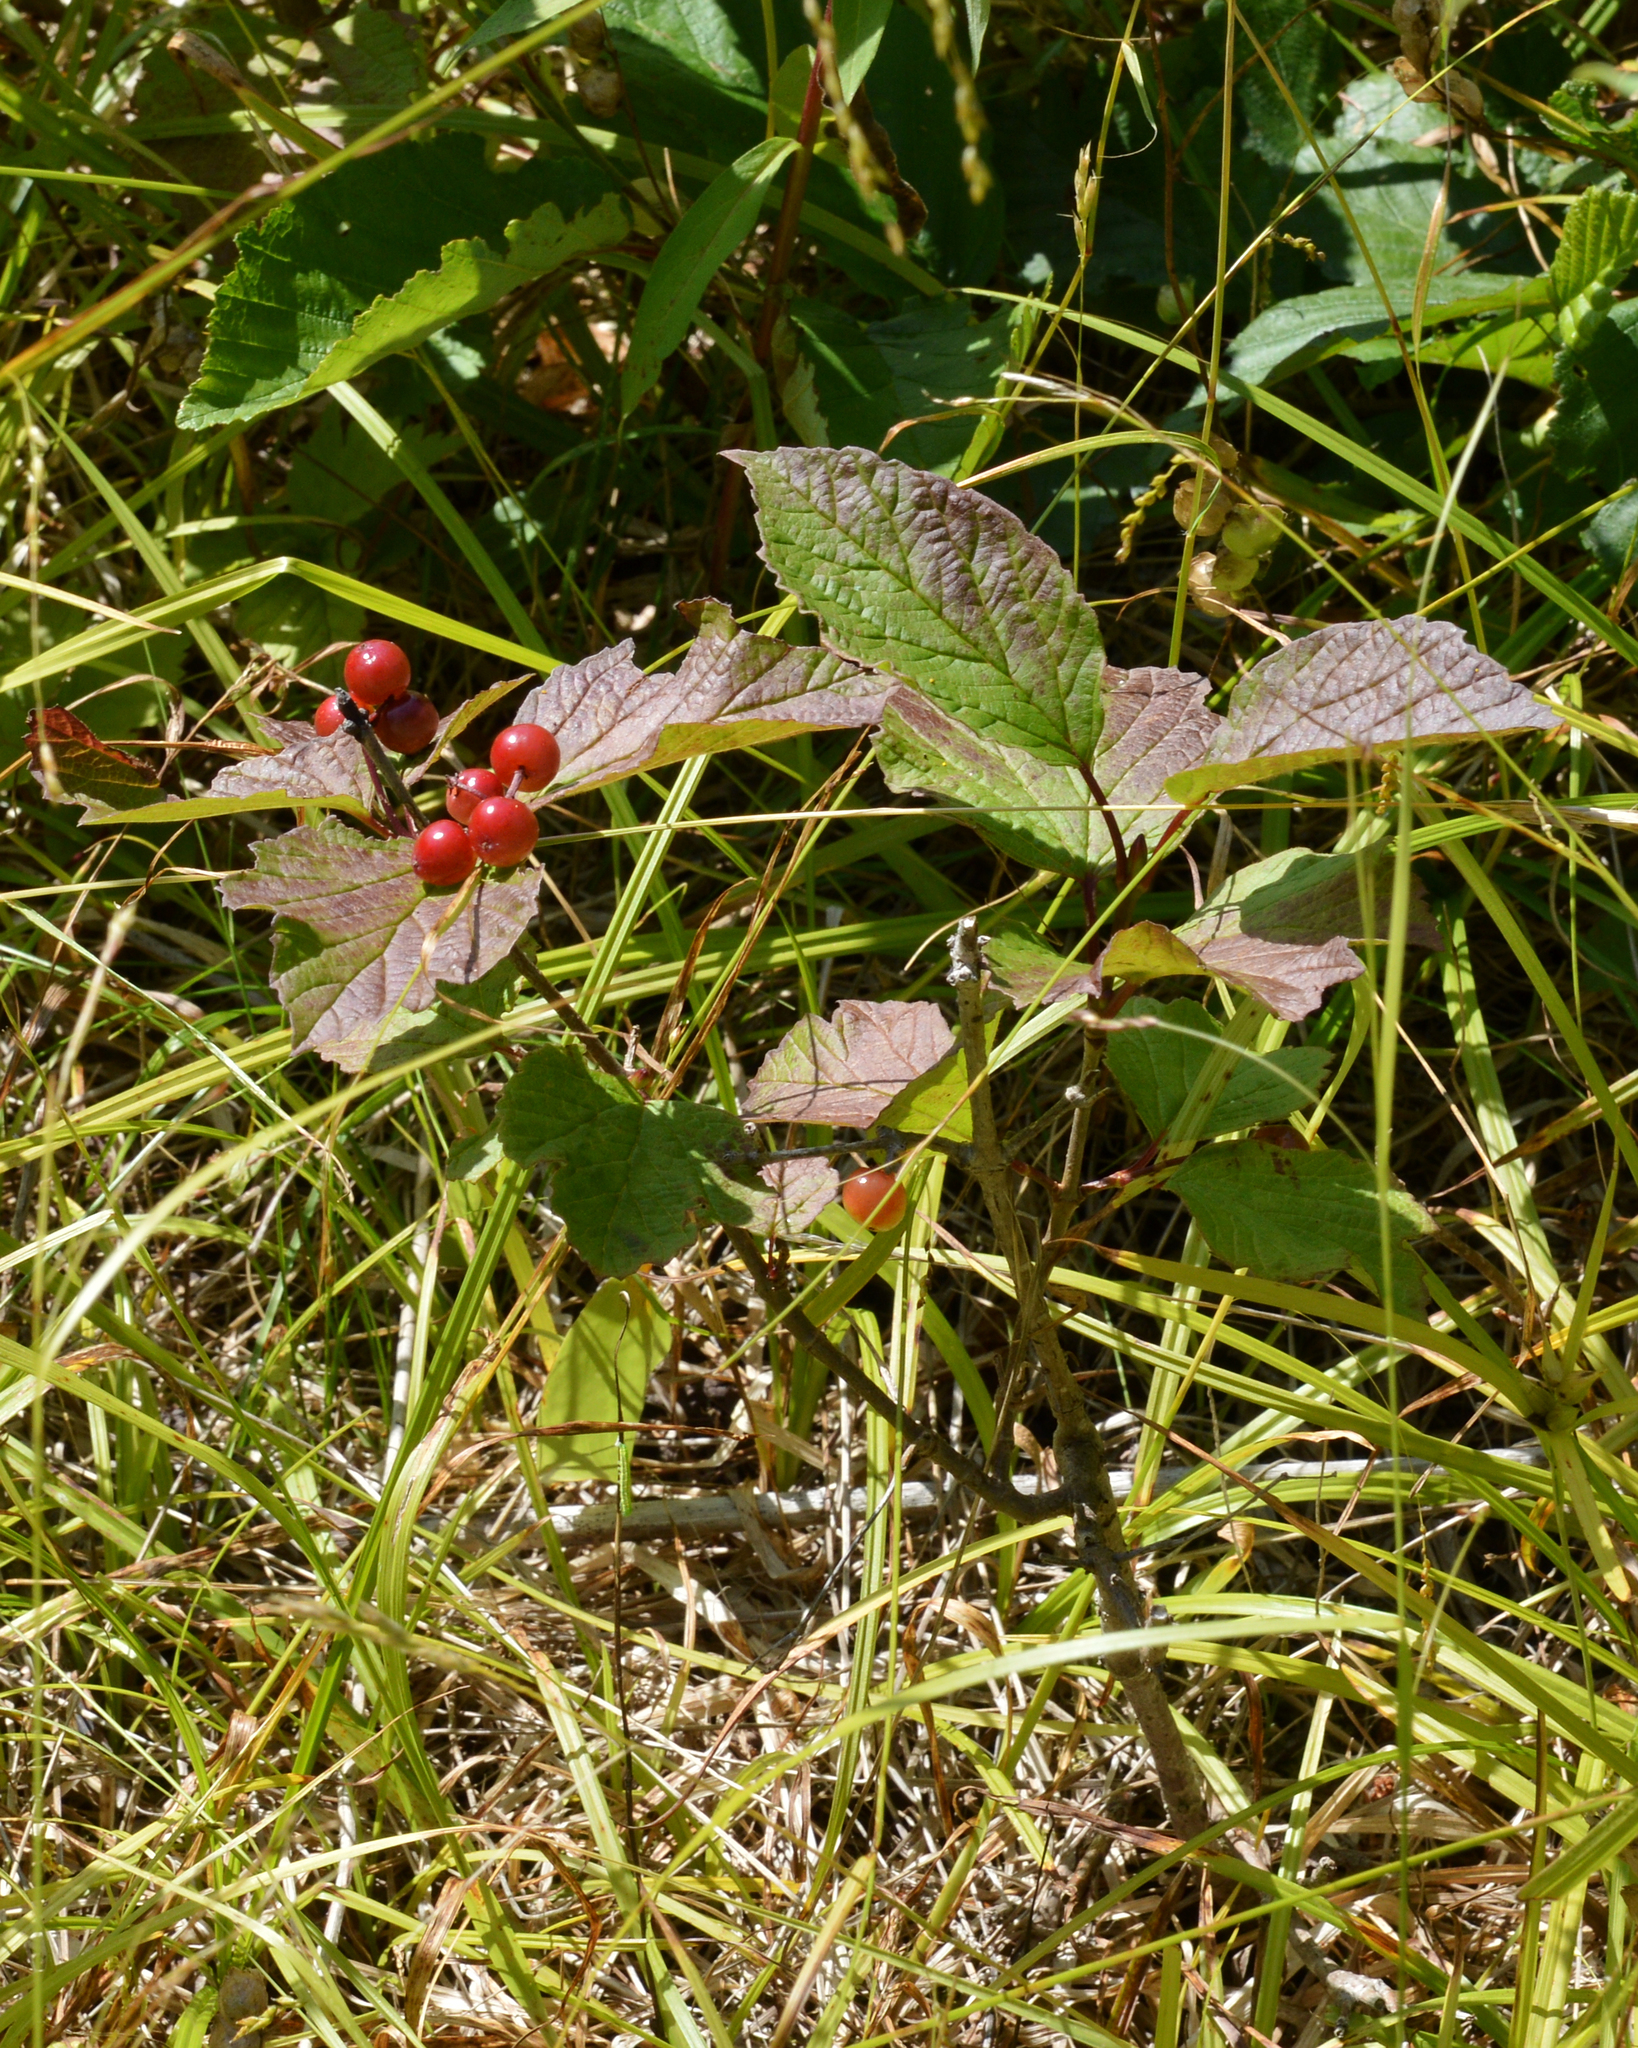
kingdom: Plantae
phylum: Tracheophyta
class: Magnoliopsida
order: Dipsacales
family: Viburnaceae
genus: Viburnum
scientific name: Viburnum edule
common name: Mooseberry
